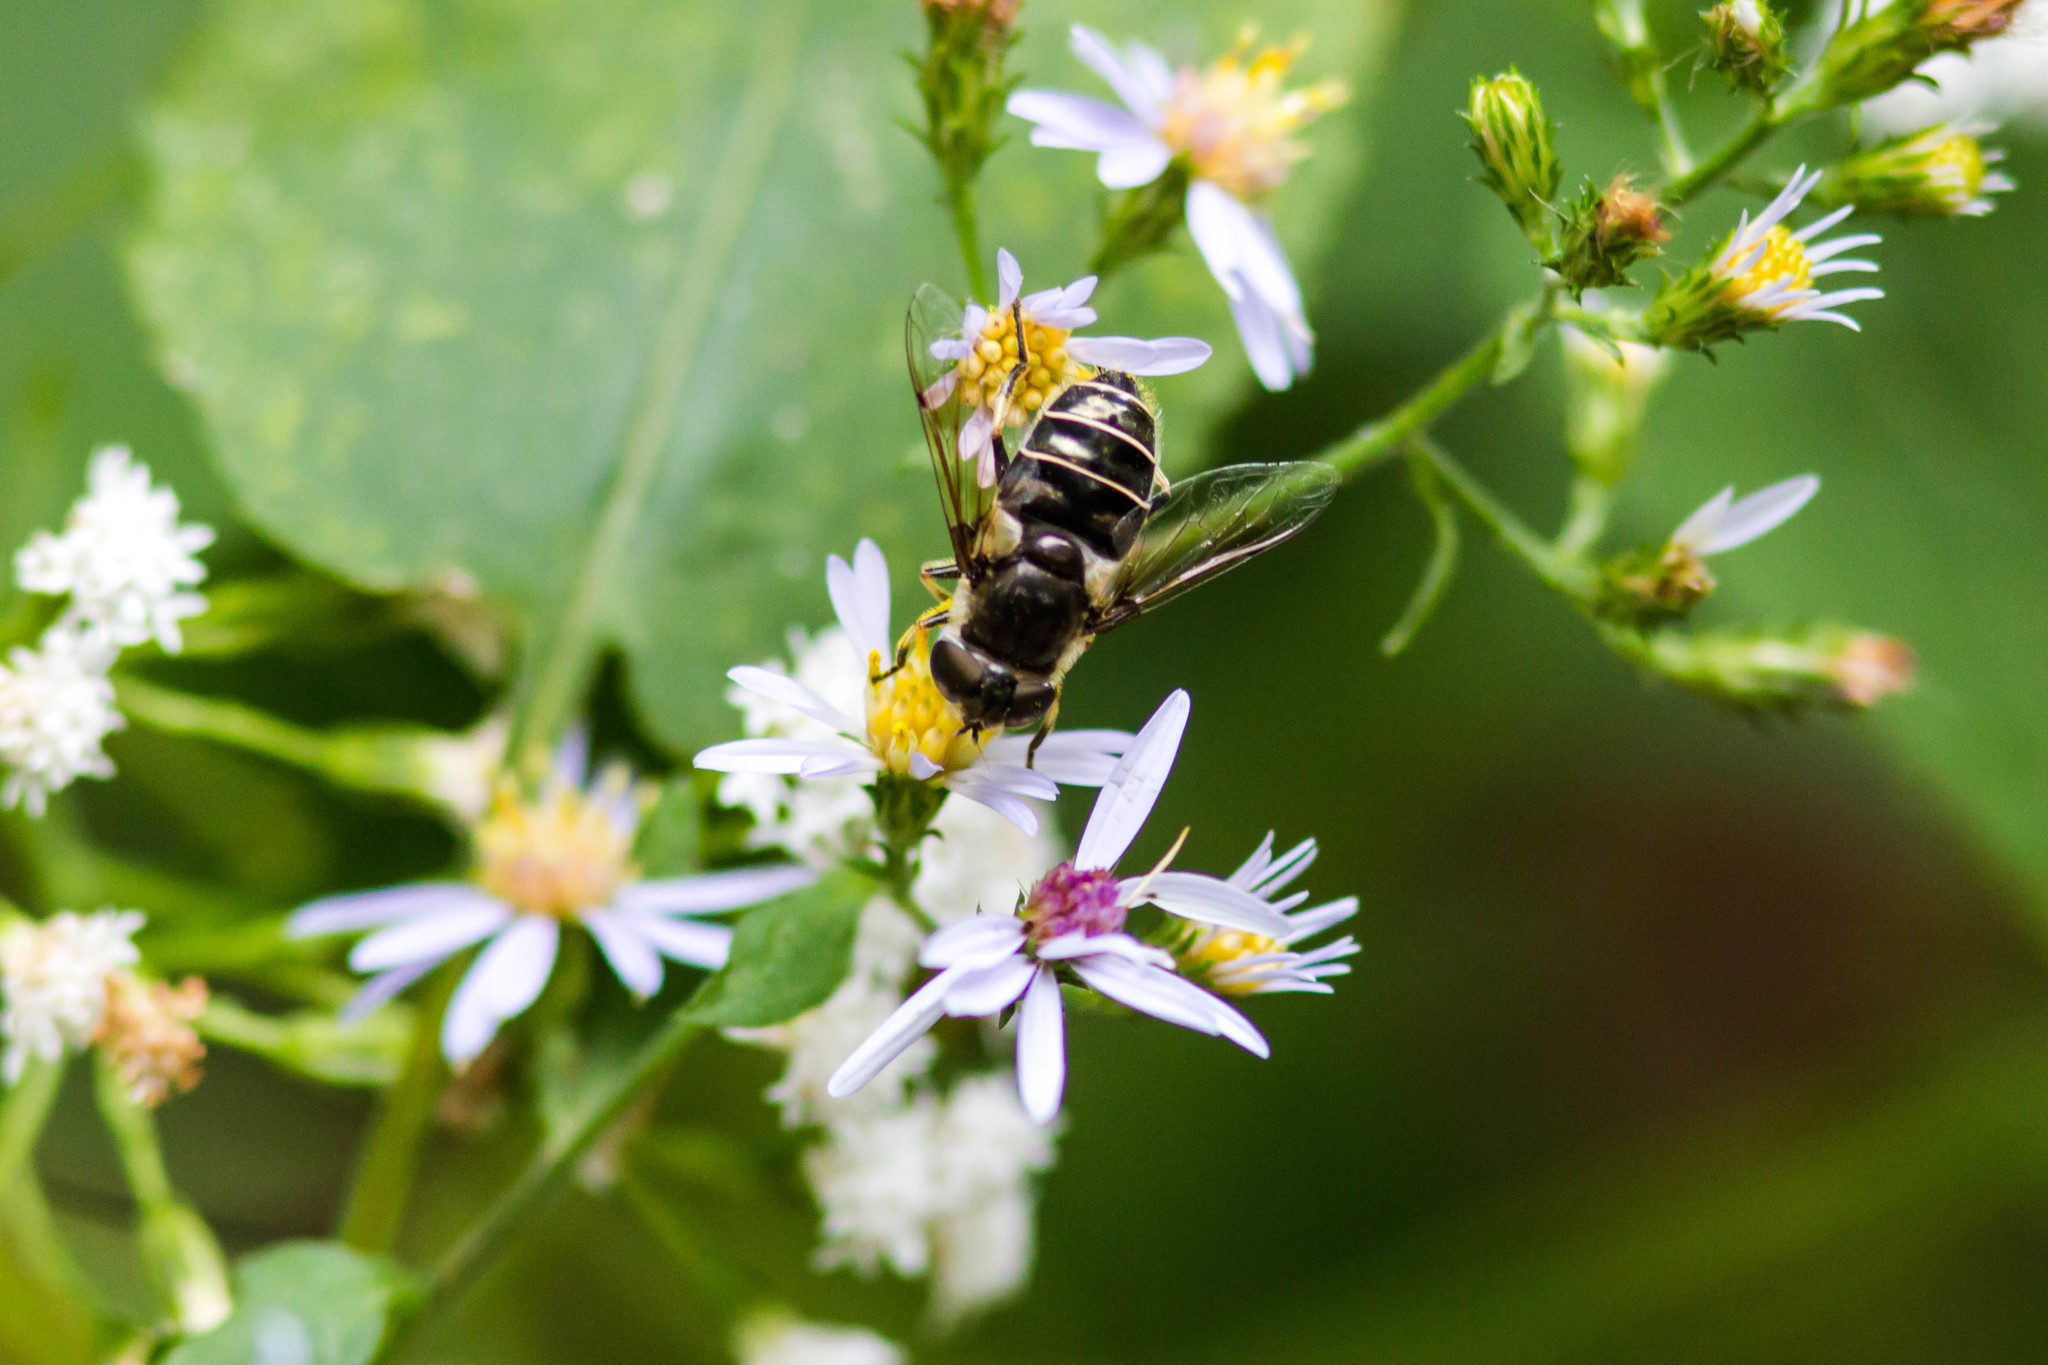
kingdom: Animalia
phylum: Arthropoda
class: Insecta
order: Diptera
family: Syrphidae
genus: Eristalis
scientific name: Eristalis dimidiata
